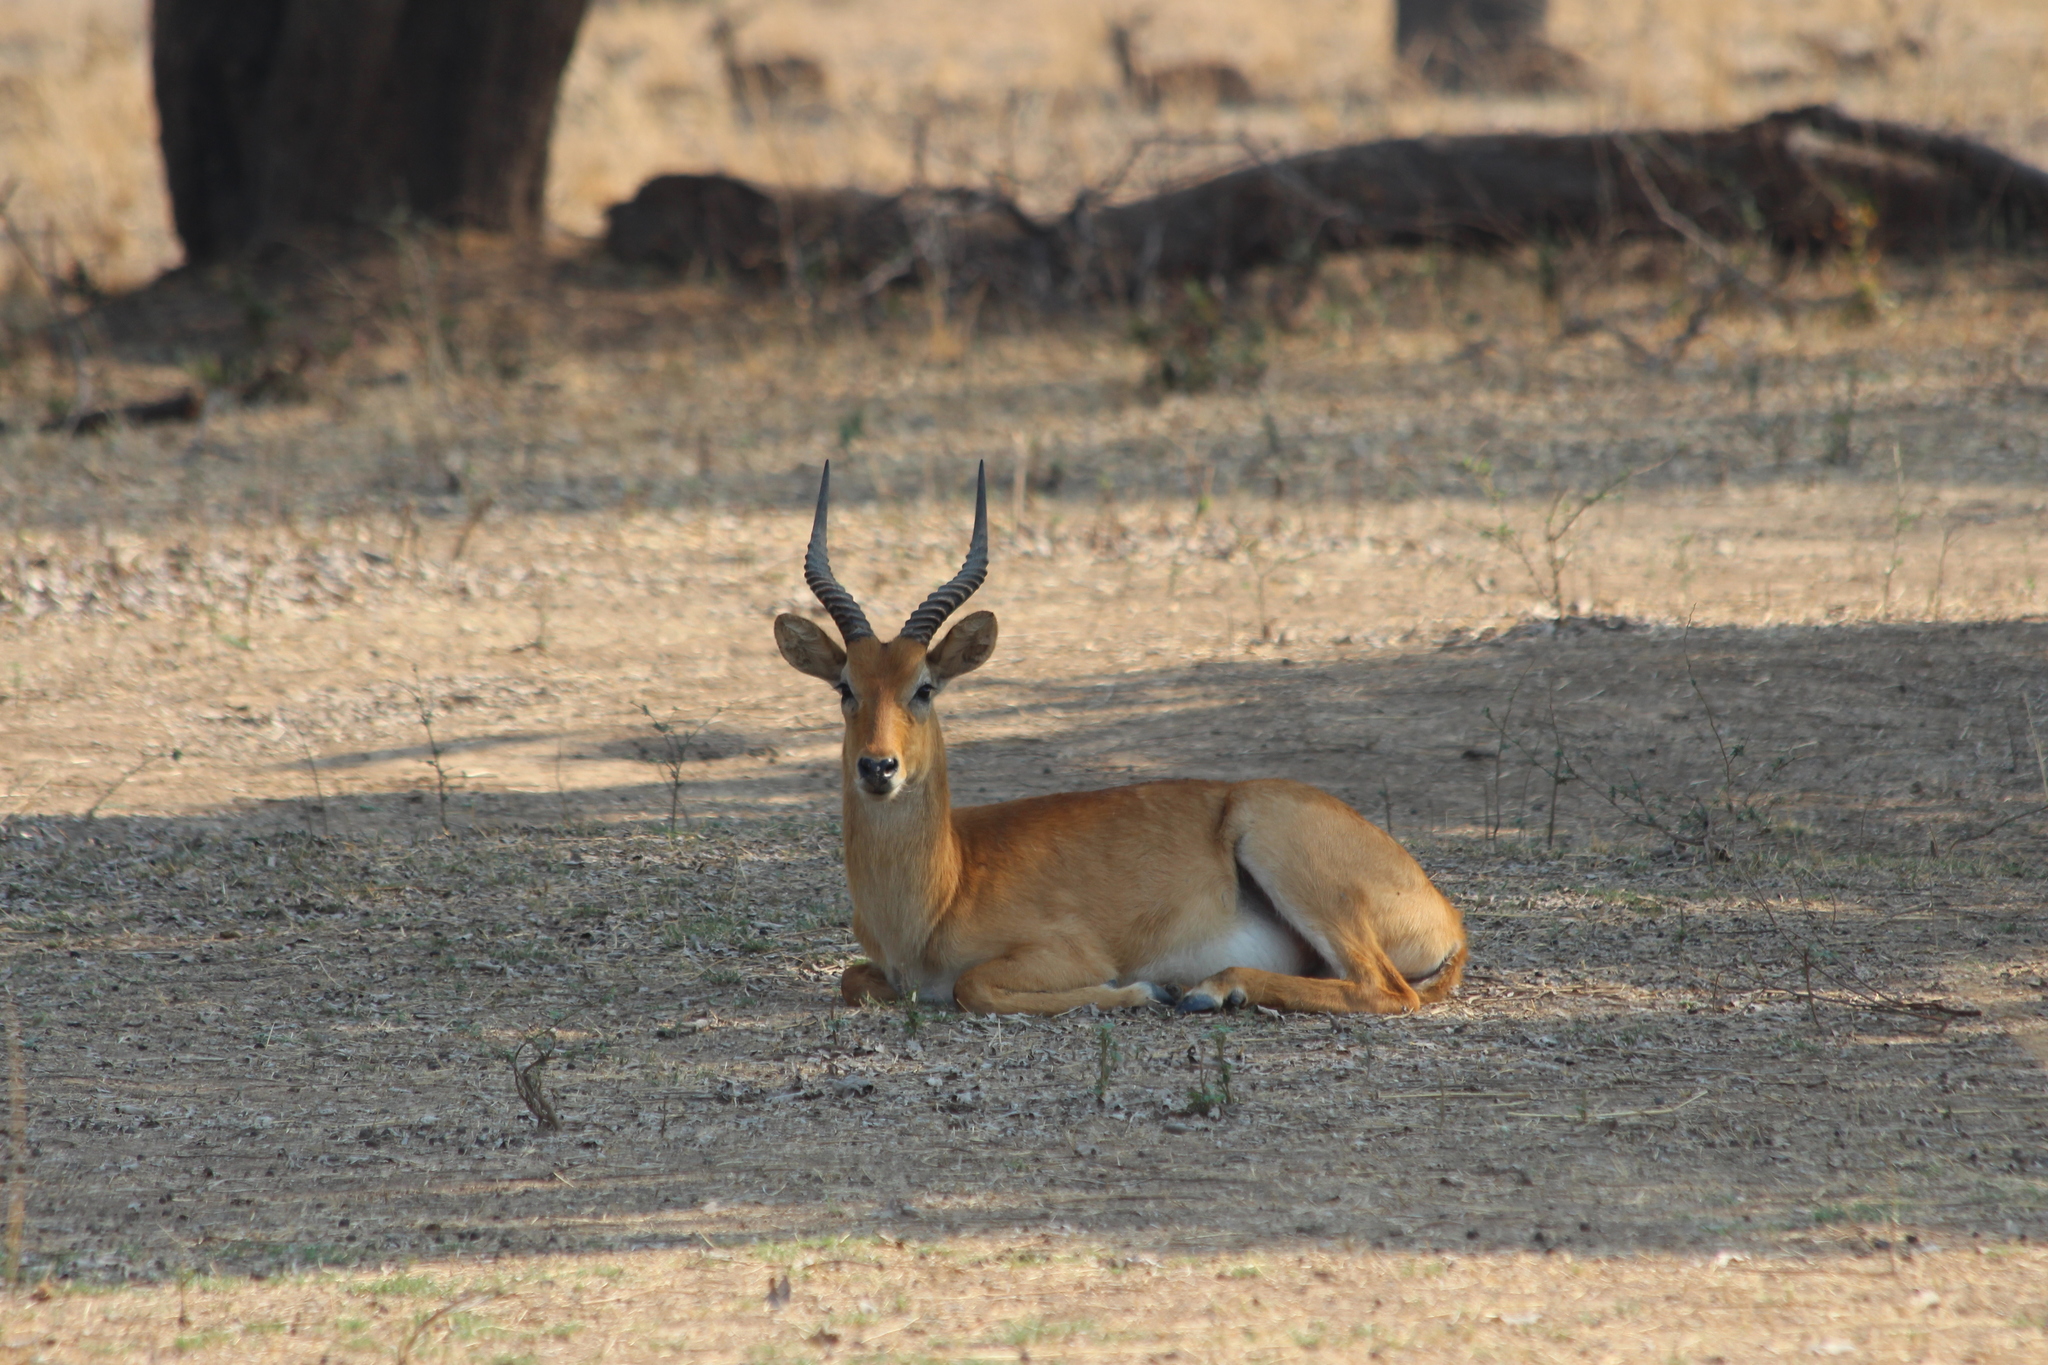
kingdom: Animalia
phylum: Chordata
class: Mammalia
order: Artiodactyla
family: Bovidae
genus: Kobus
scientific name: Kobus vardonii
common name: Puku
